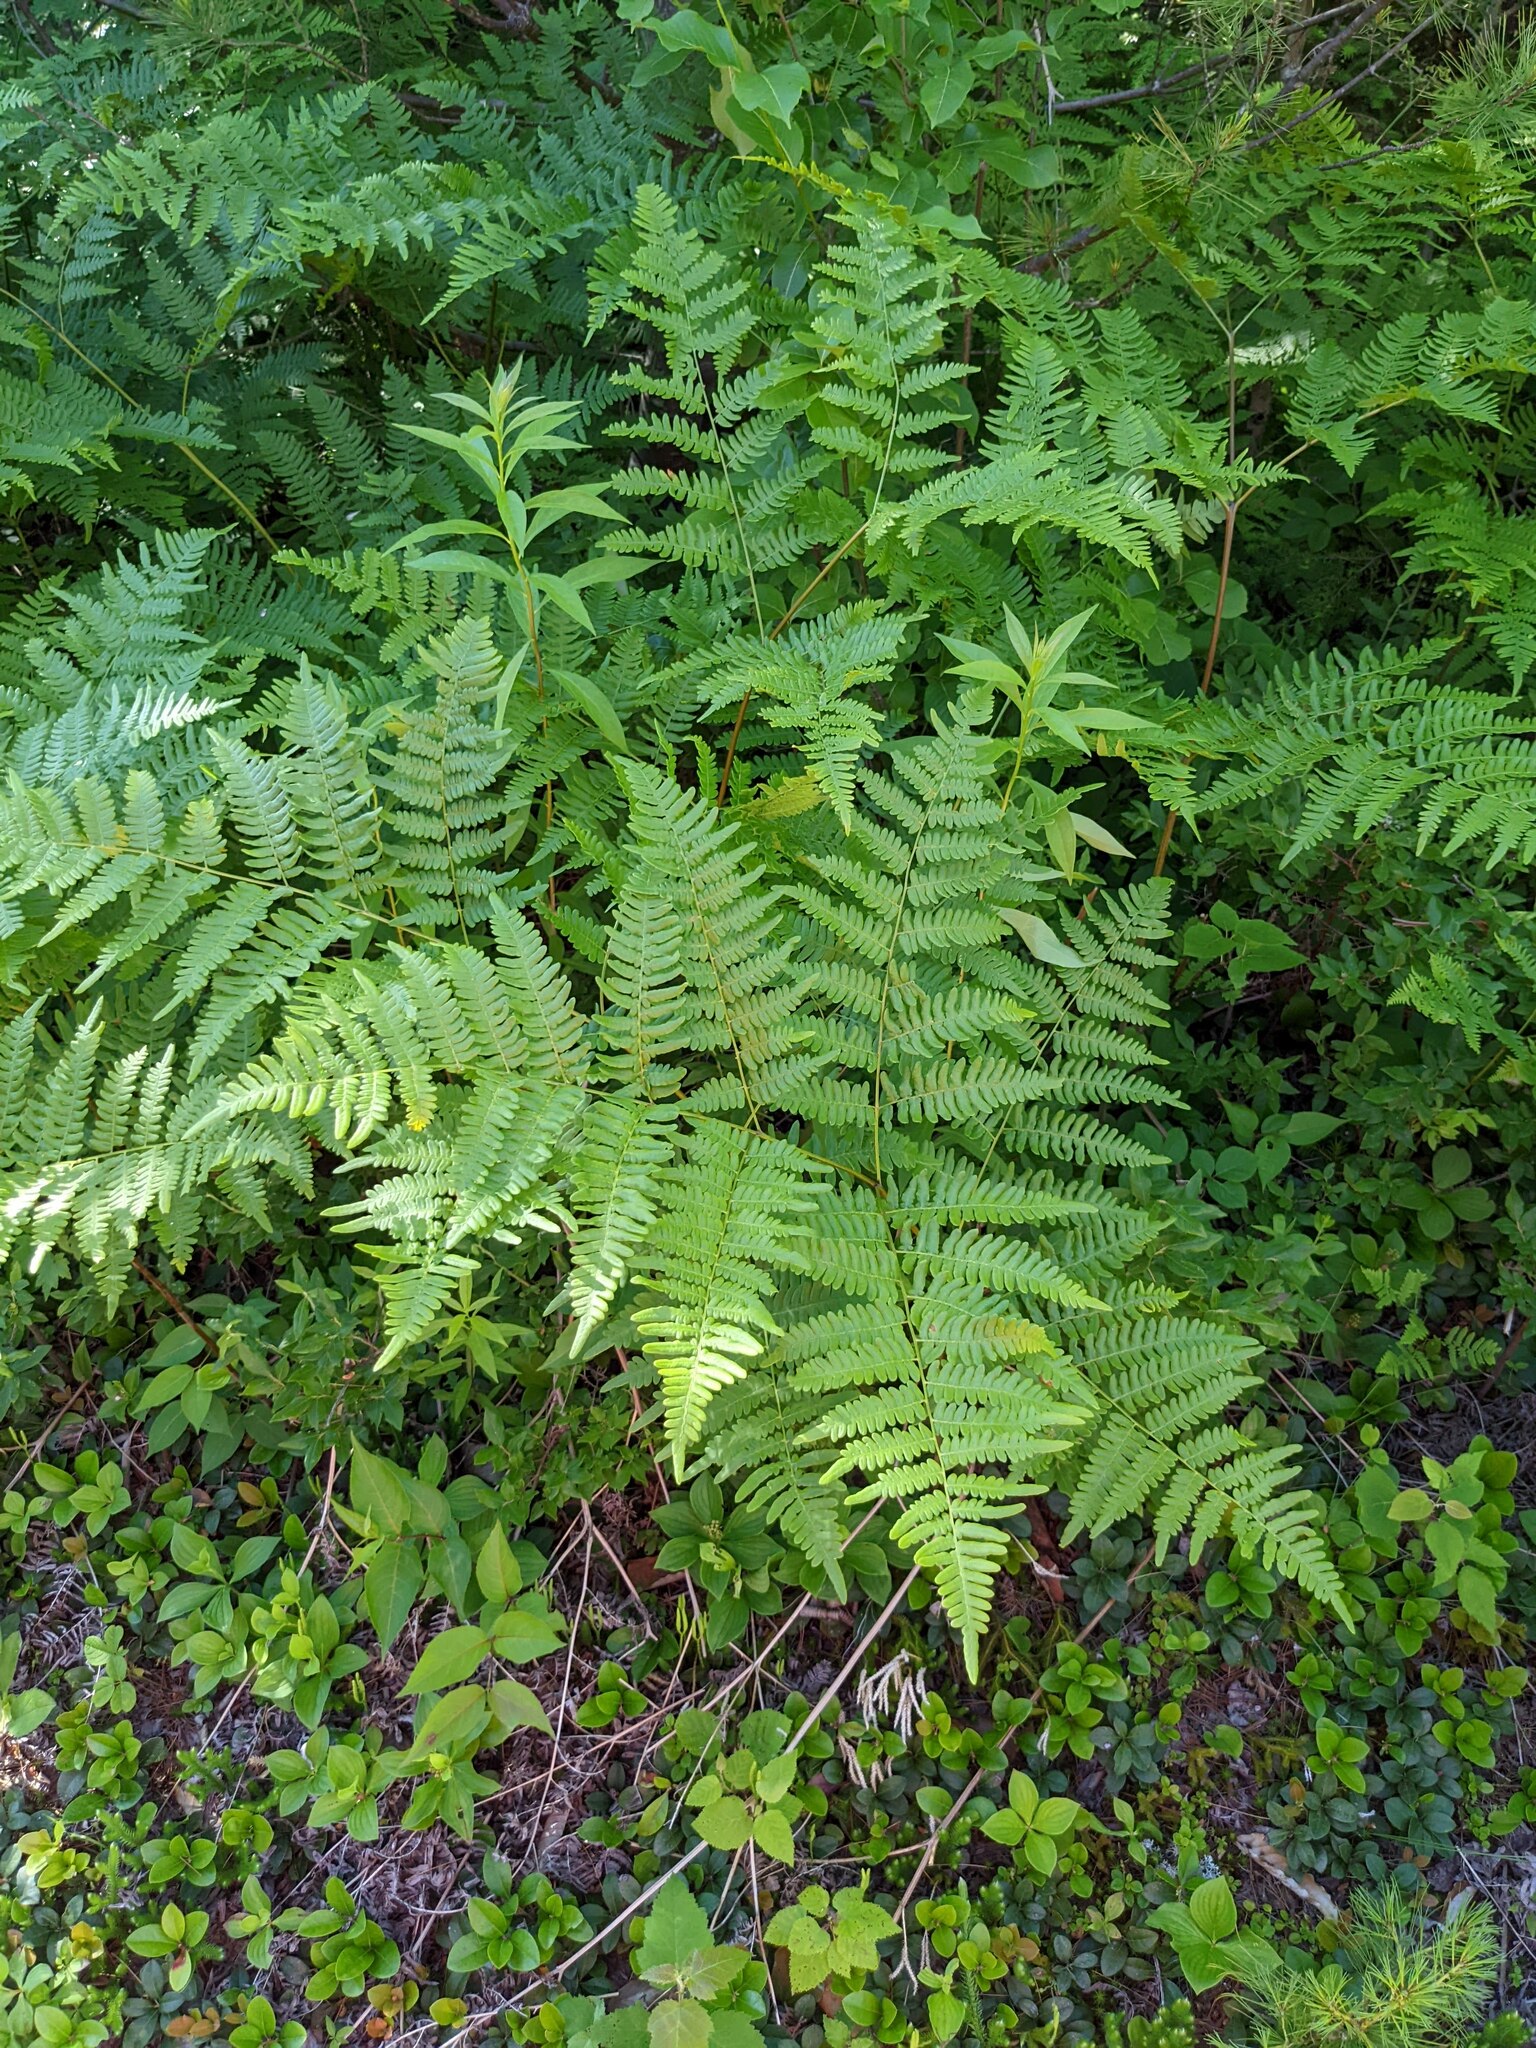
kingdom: Plantae
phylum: Tracheophyta
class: Polypodiopsida
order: Polypodiales
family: Dennstaedtiaceae
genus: Pteridium
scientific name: Pteridium aquilinum
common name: Bracken
